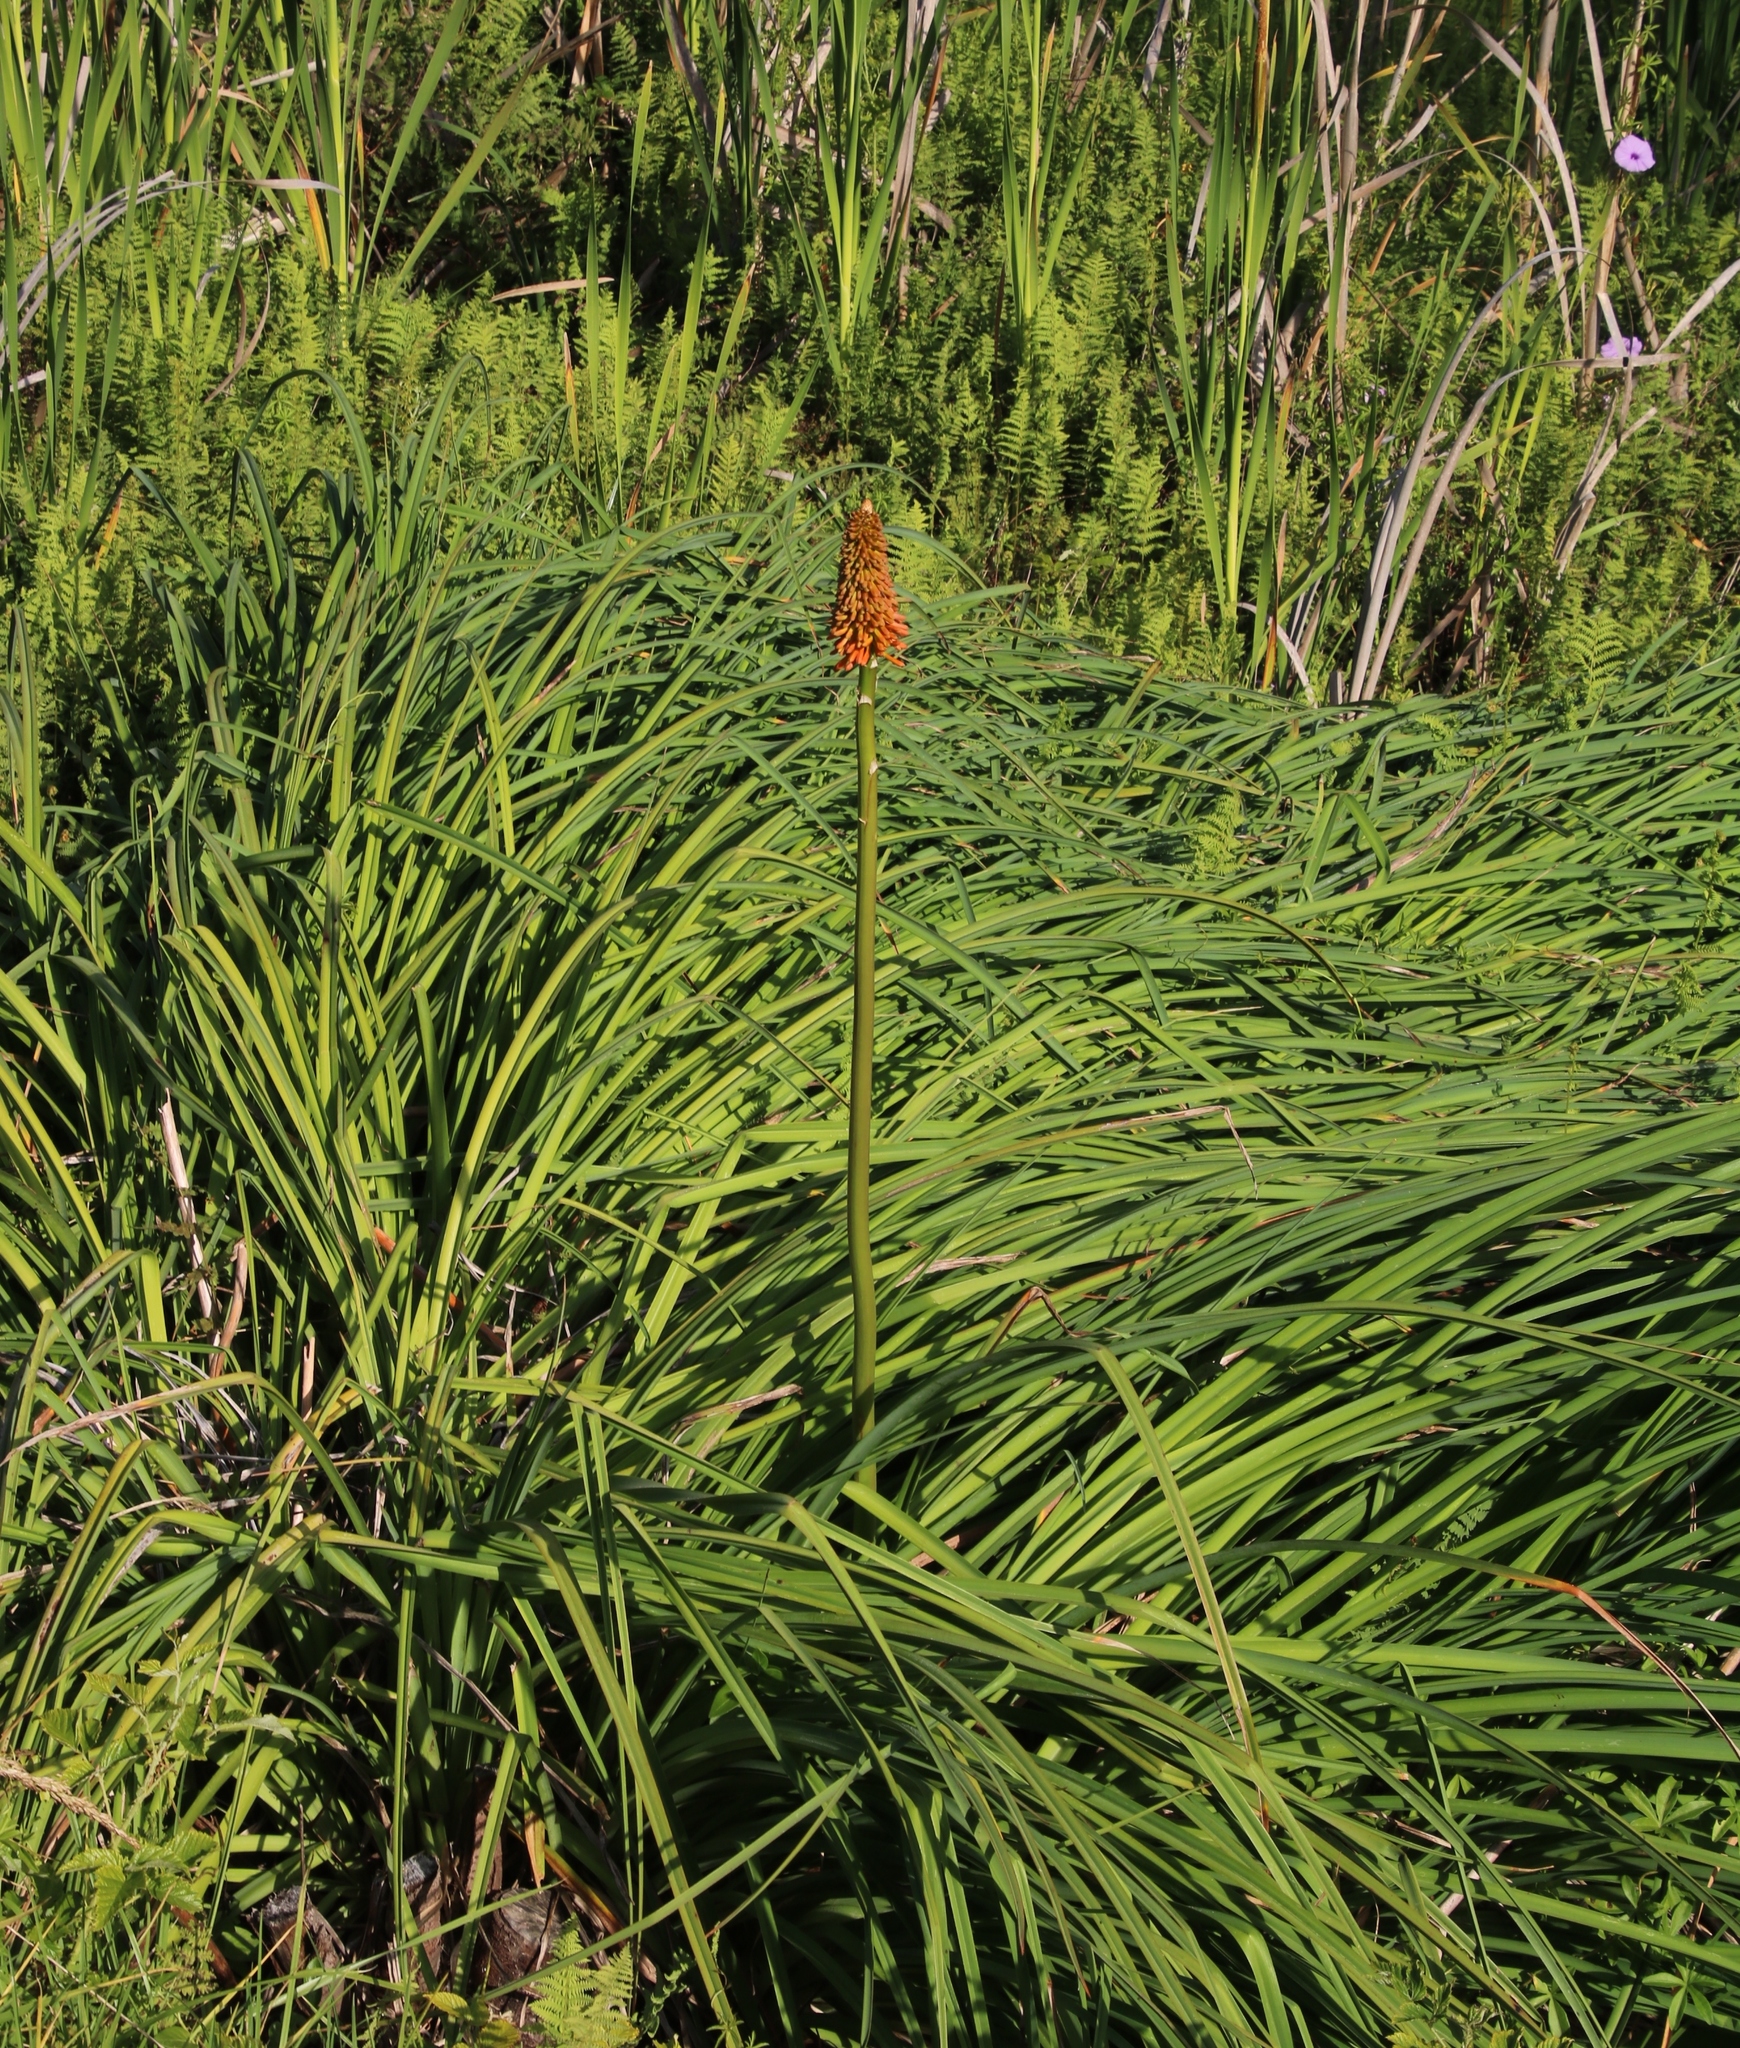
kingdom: Plantae
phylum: Tracheophyta
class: Liliopsida
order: Asparagales
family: Asphodelaceae
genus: Kniphofia
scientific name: Kniphofia uvaria
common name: Red-hot-poker
